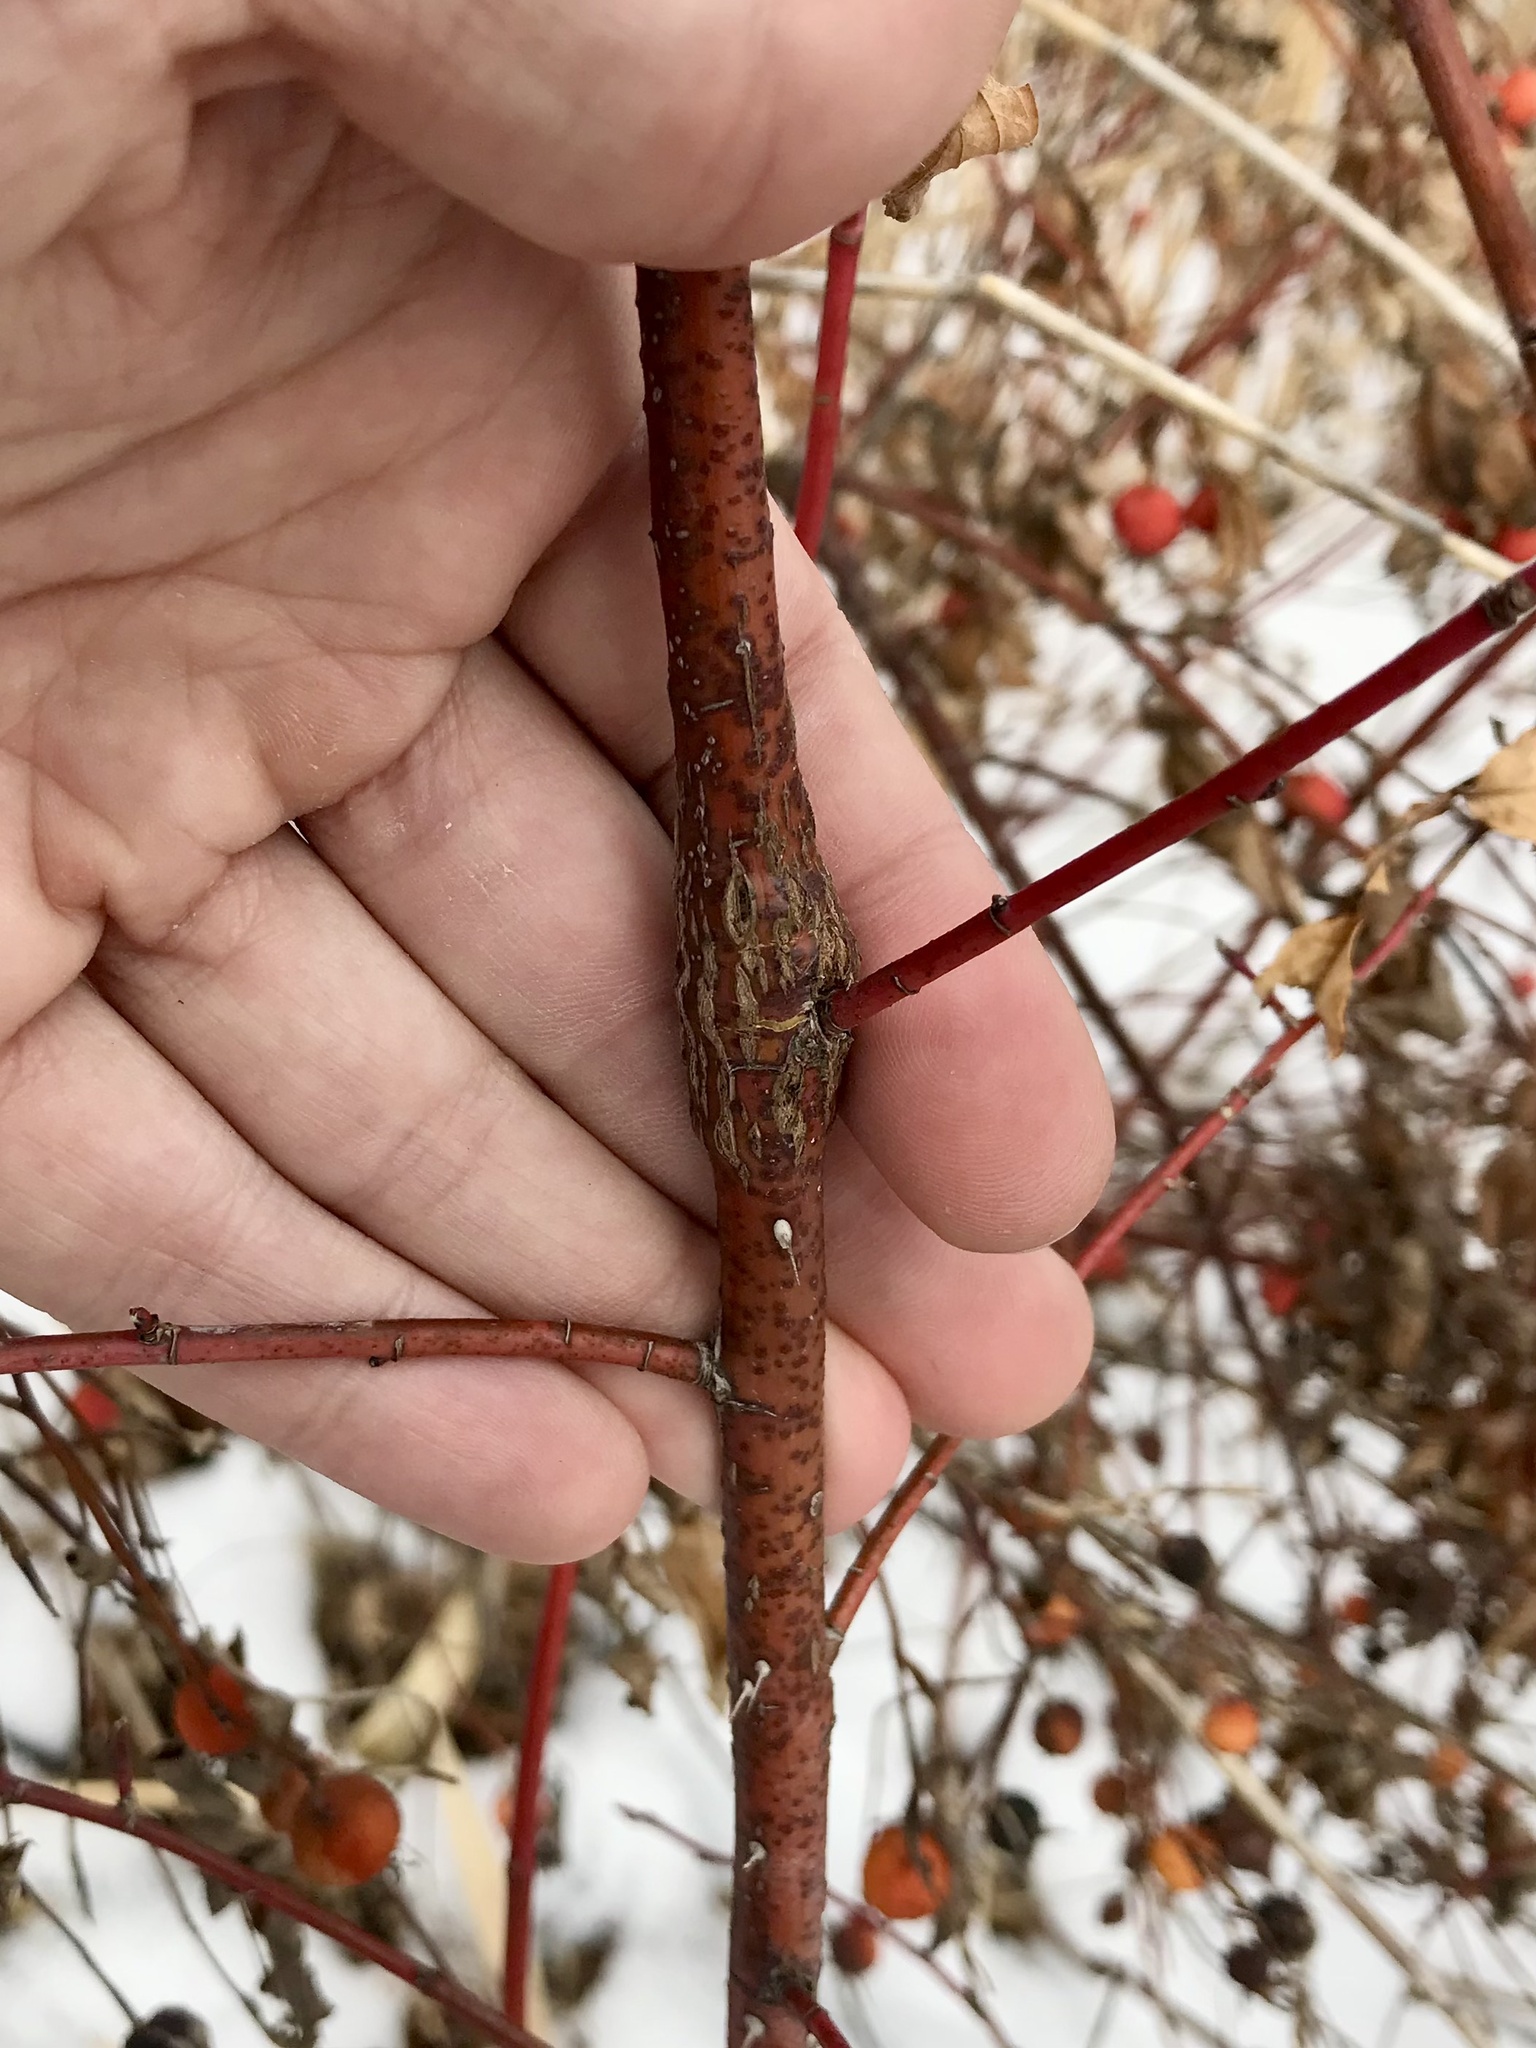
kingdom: Animalia
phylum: Arthropoda
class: Insecta
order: Coleoptera
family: Buprestidae
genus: Agrilus
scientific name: Agrilus cuprescens
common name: Rose stem girdler
